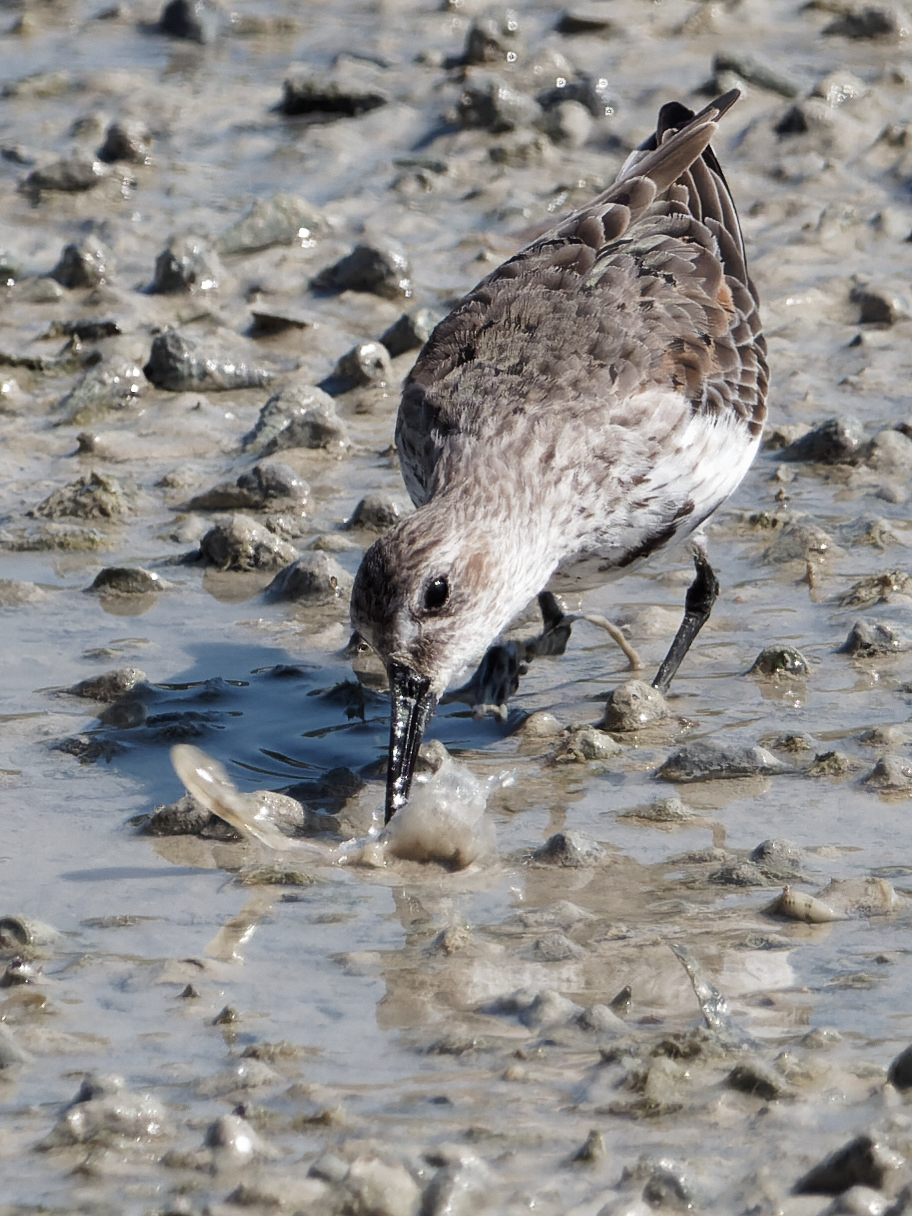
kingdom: Animalia
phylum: Chordata
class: Aves
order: Charadriiformes
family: Scolopacidae
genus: Calidris
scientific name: Calidris alpina
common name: Dunlin
